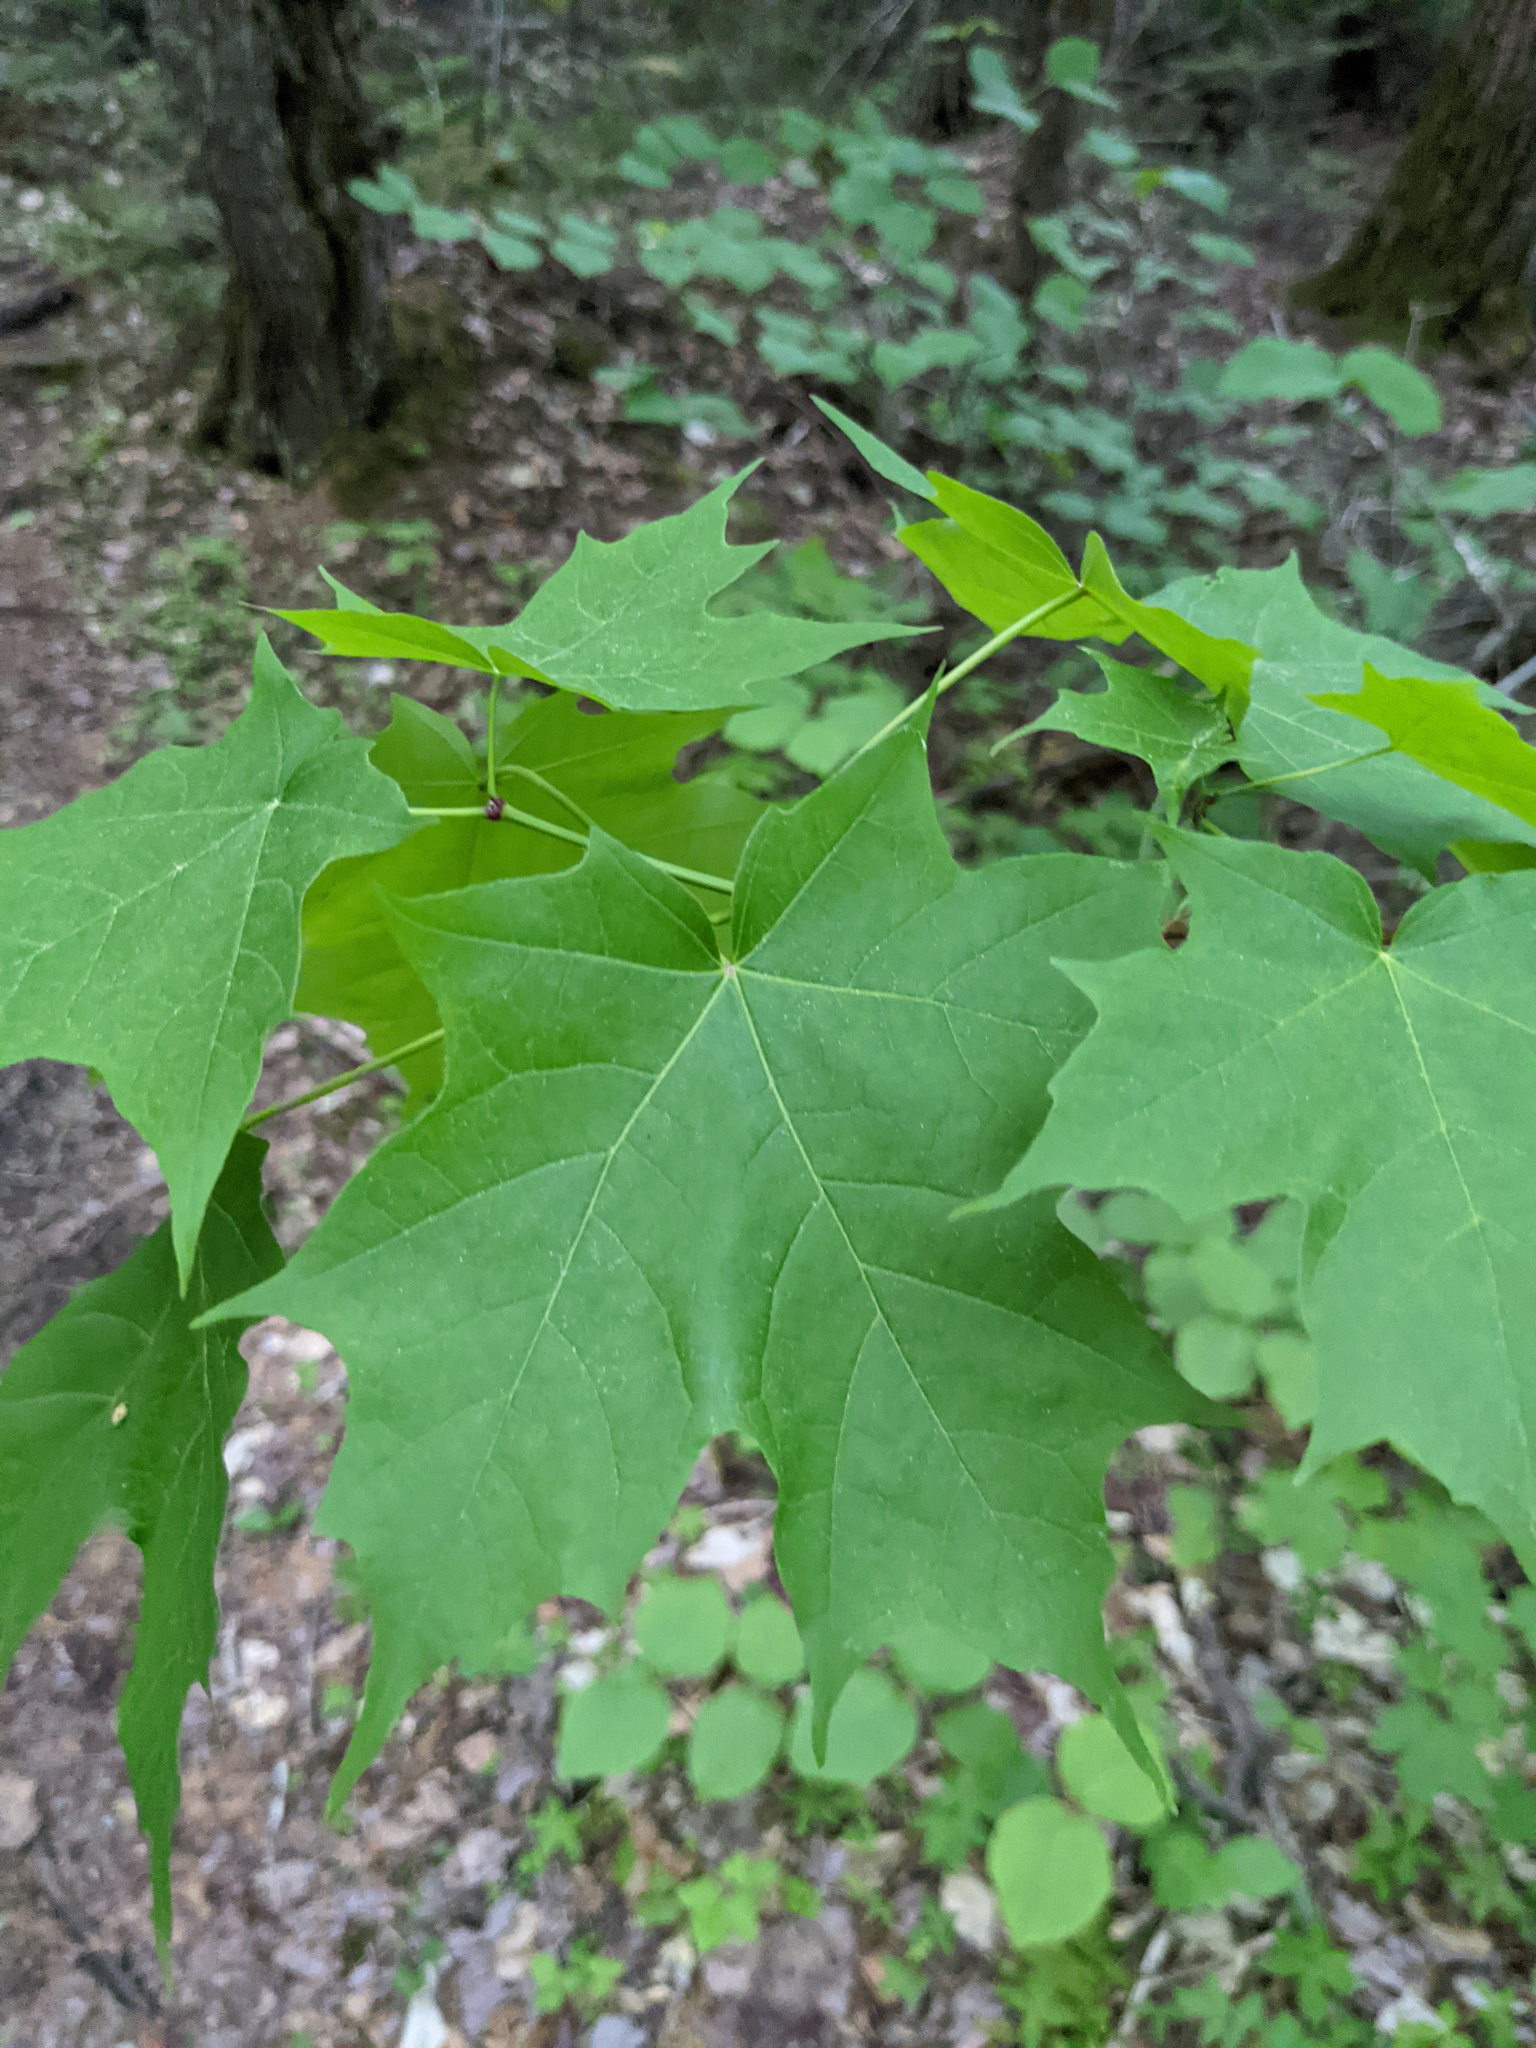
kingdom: Plantae
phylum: Tracheophyta
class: Magnoliopsida
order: Sapindales
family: Sapindaceae
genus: Acer
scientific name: Acer saccharum
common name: Sugar maple
